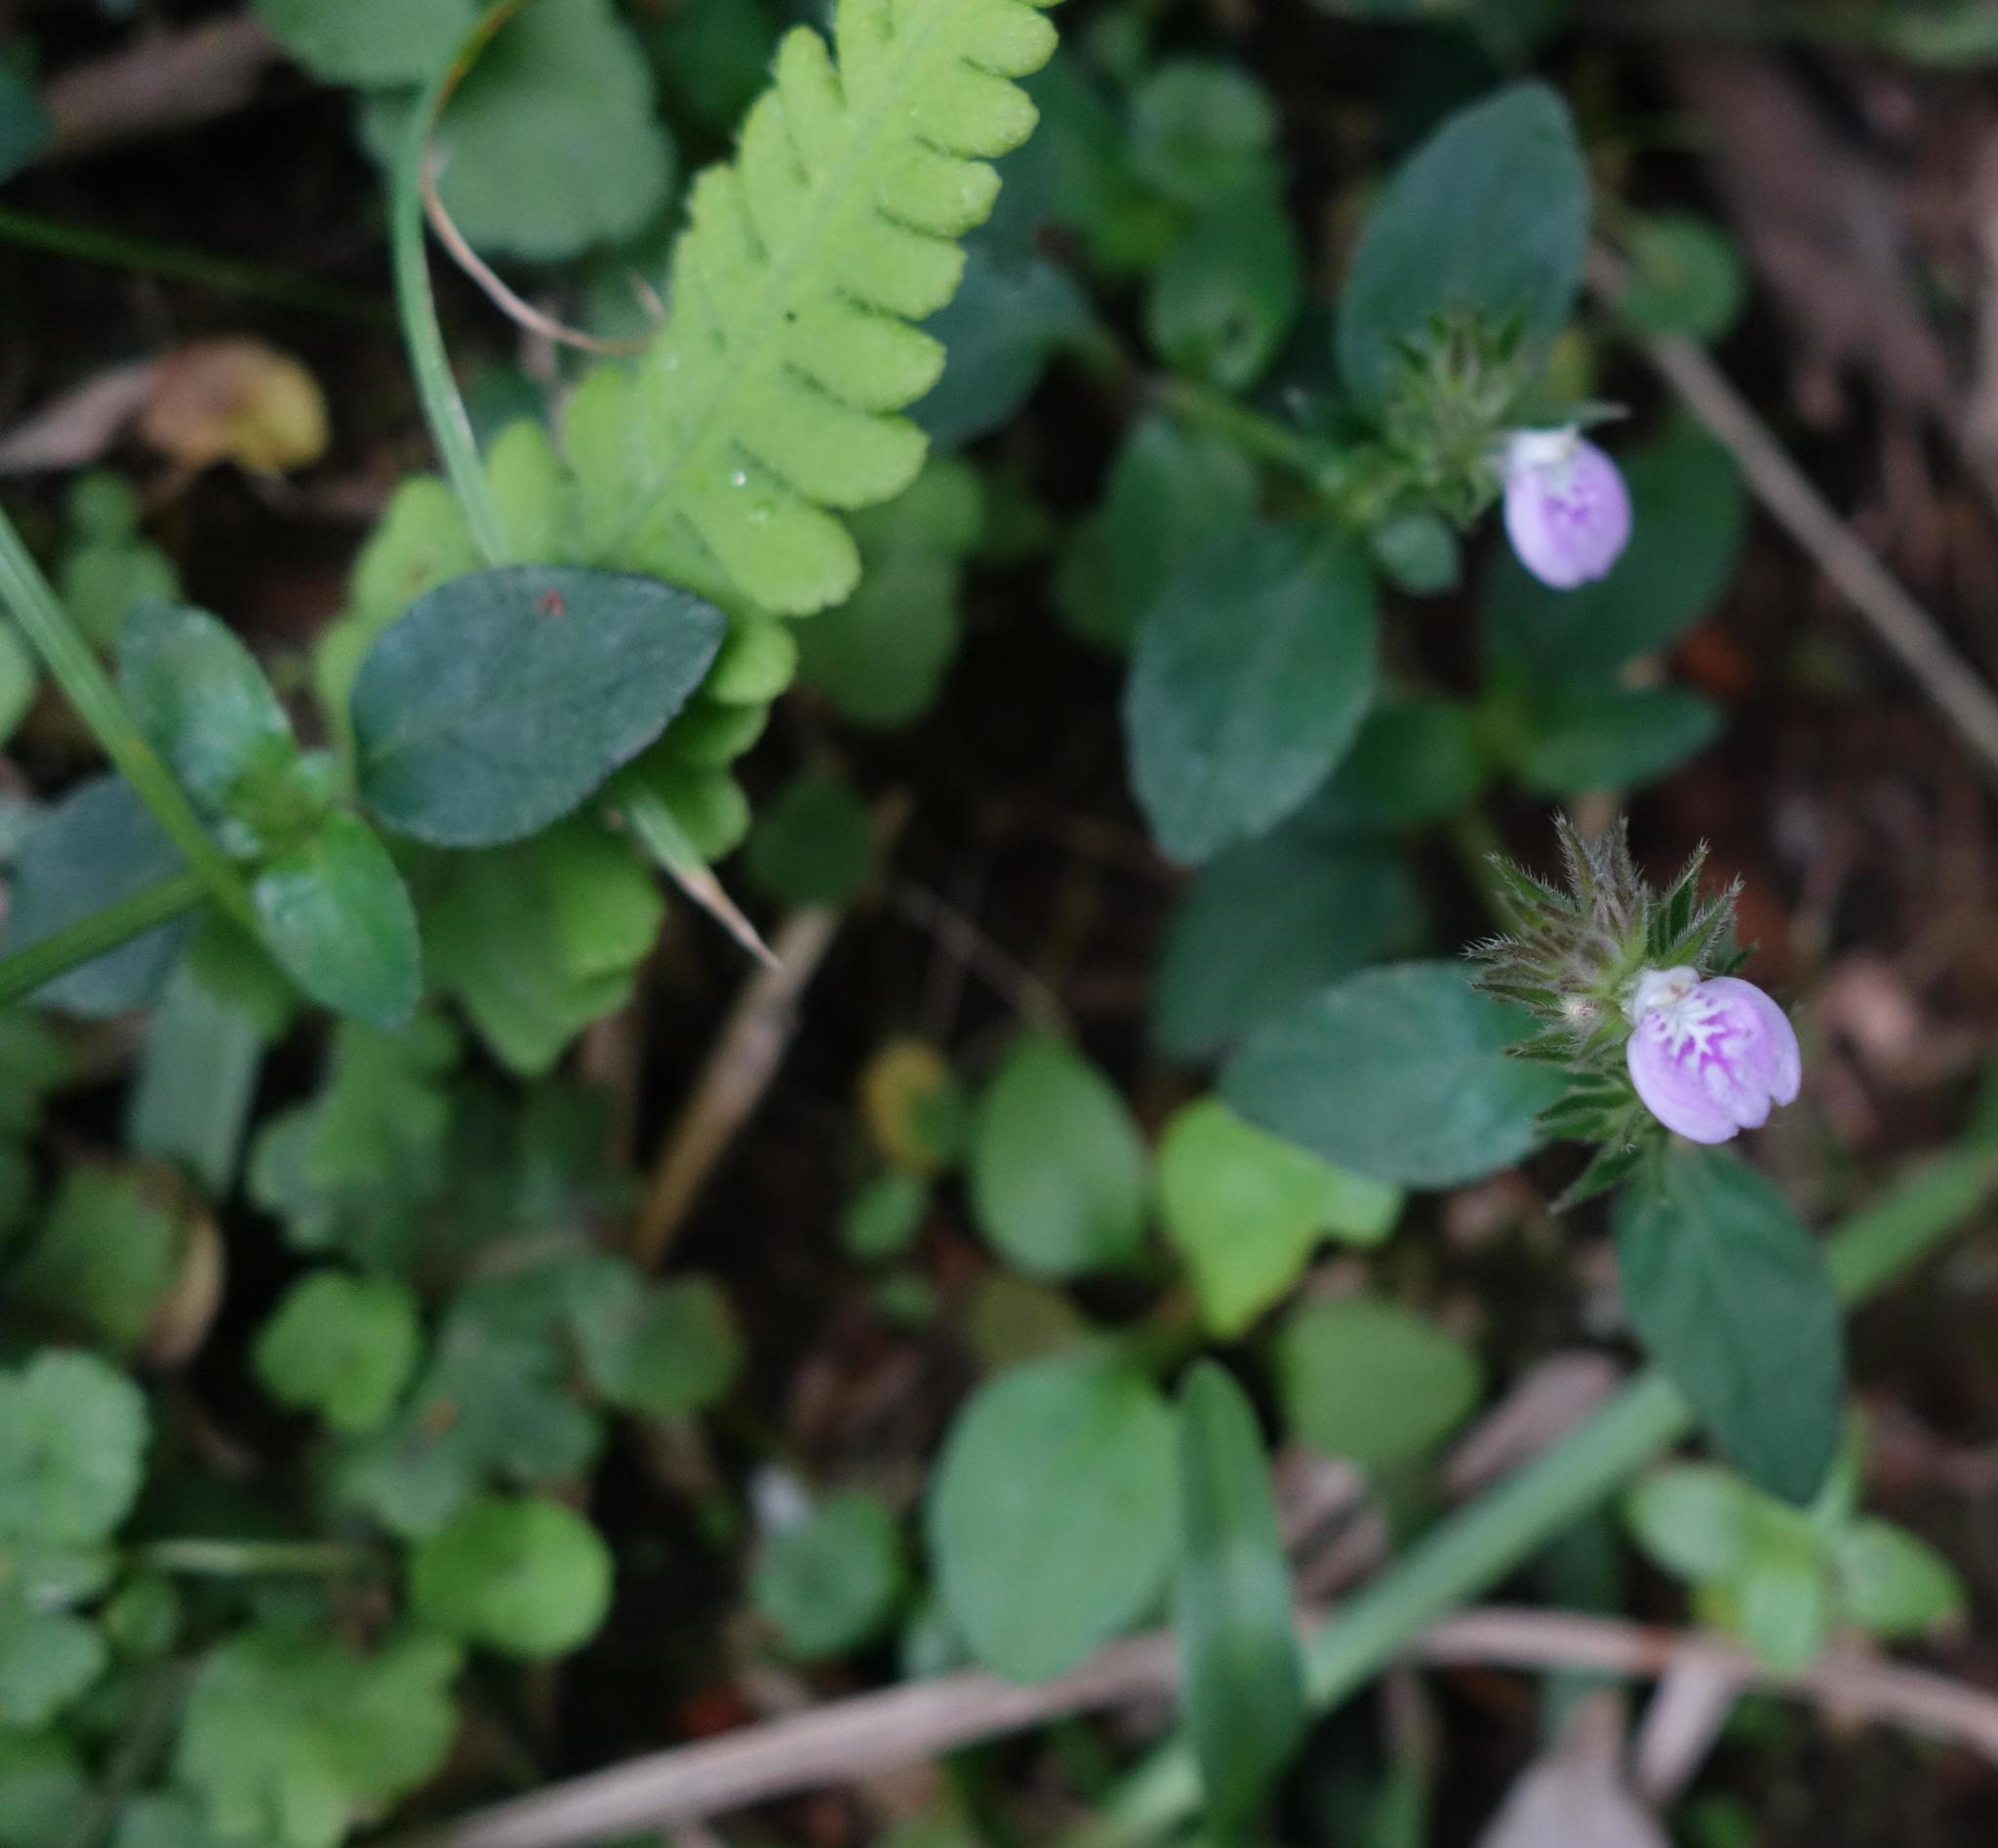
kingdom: Plantae
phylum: Tracheophyta
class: Magnoliopsida
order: Lamiales
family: Acanthaceae
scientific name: Acanthaceae
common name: Acanthaceae
